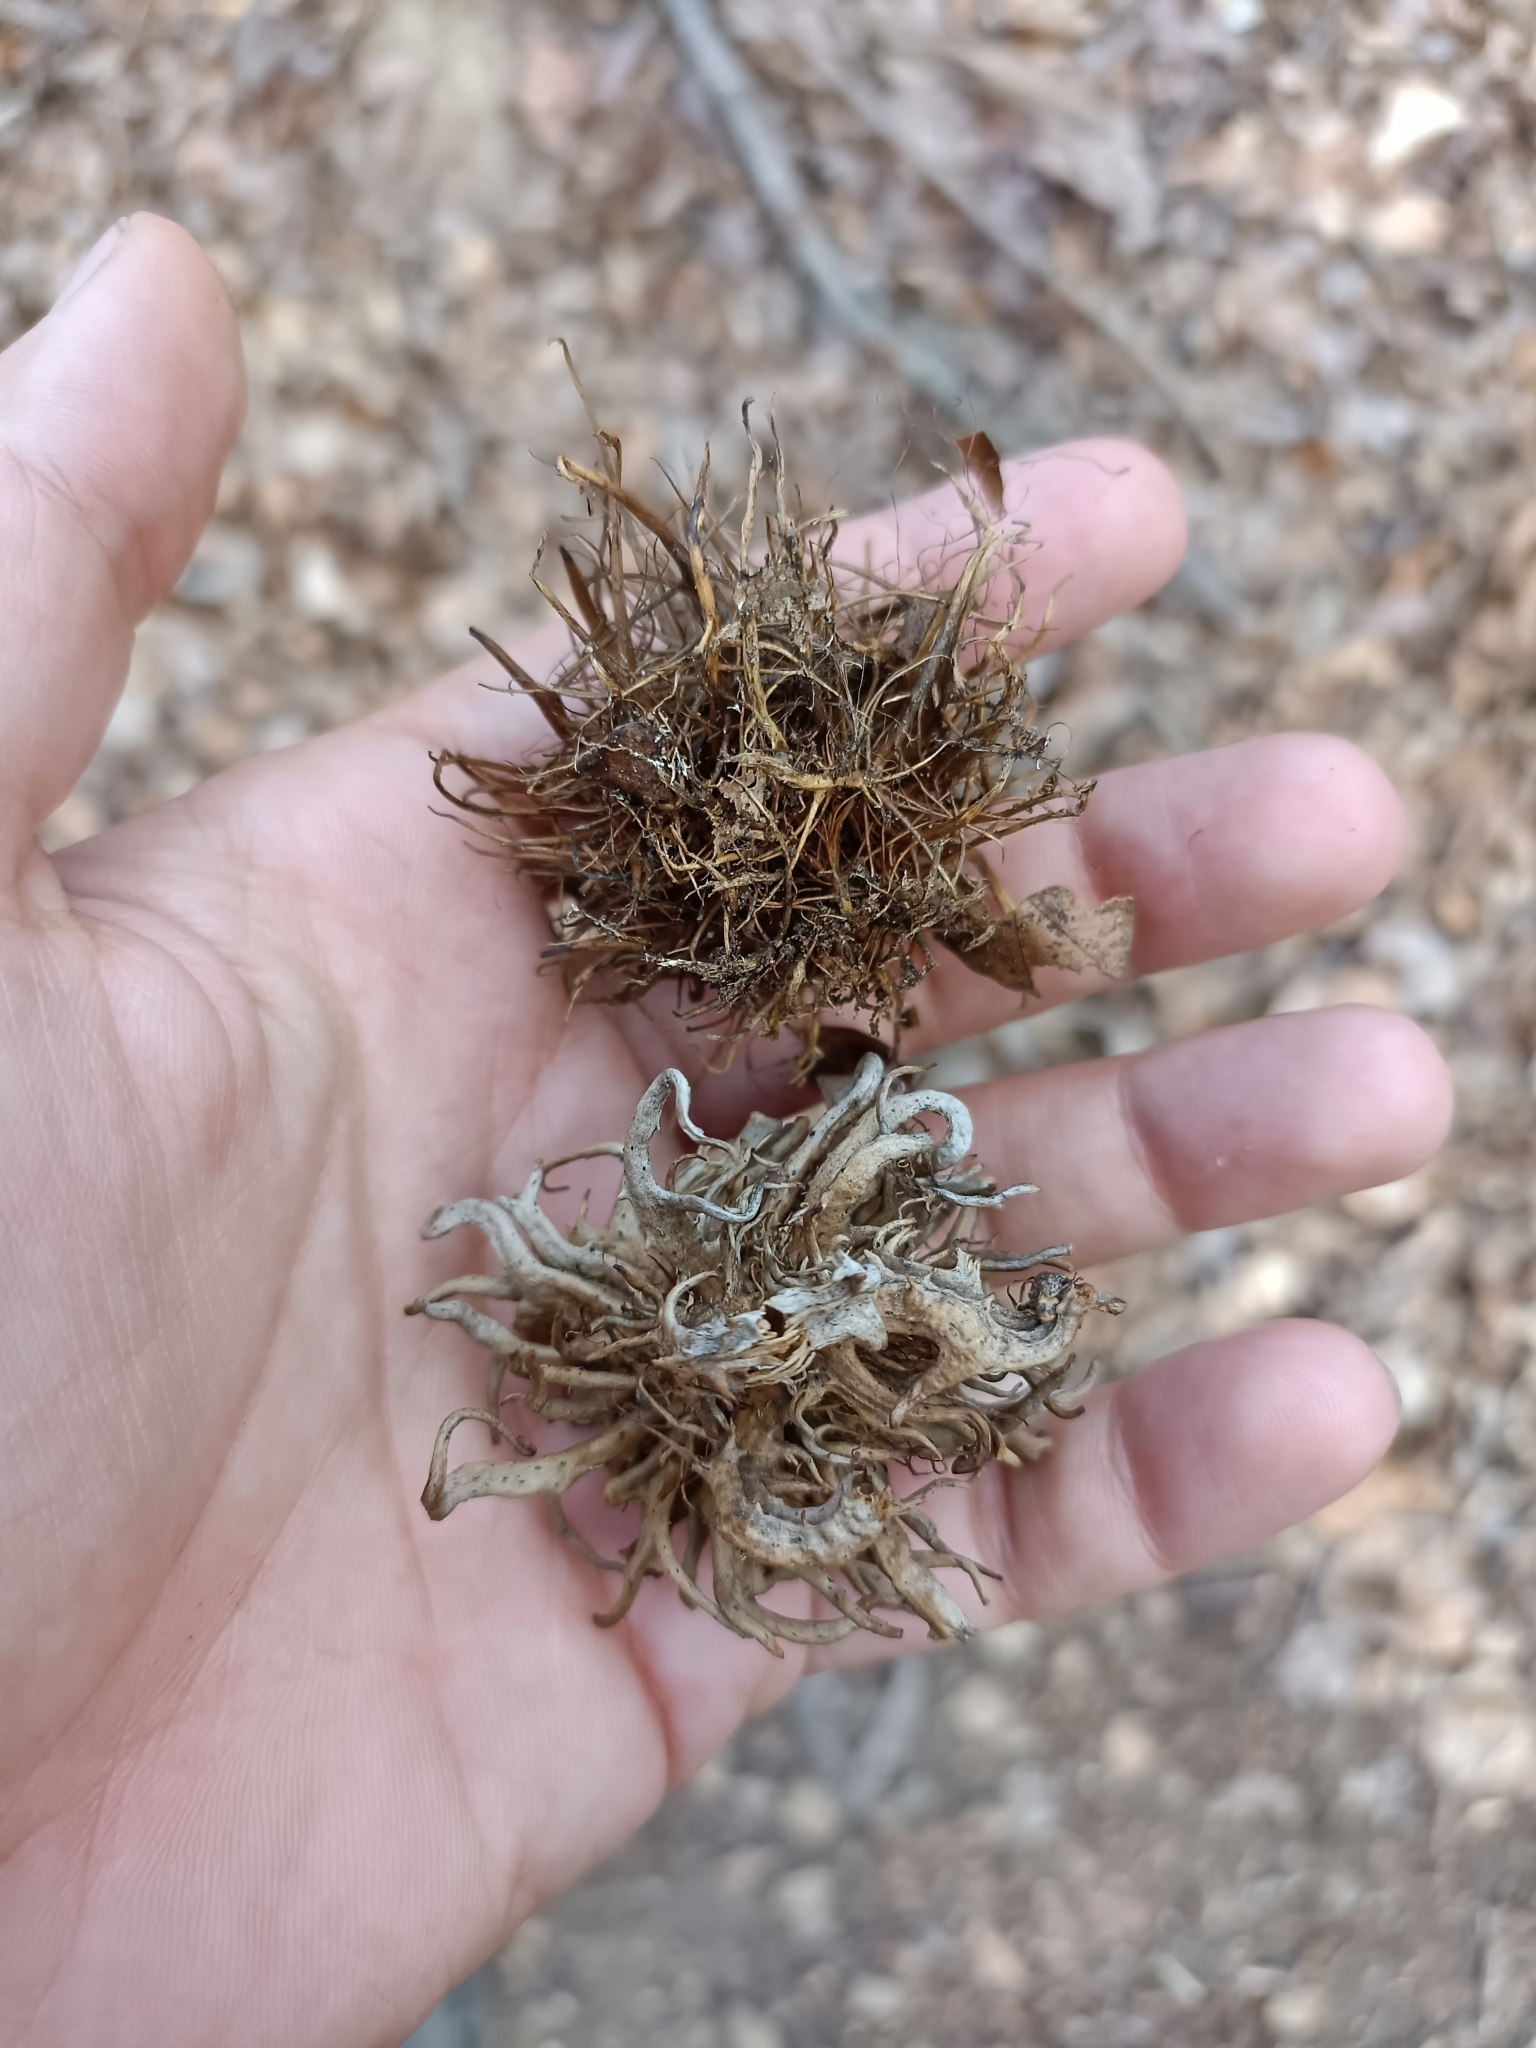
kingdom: Animalia
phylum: Arthropoda
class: Insecta
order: Hymenoptera
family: Cynipidae
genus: Andricus
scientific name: Andricus caputmedusae
